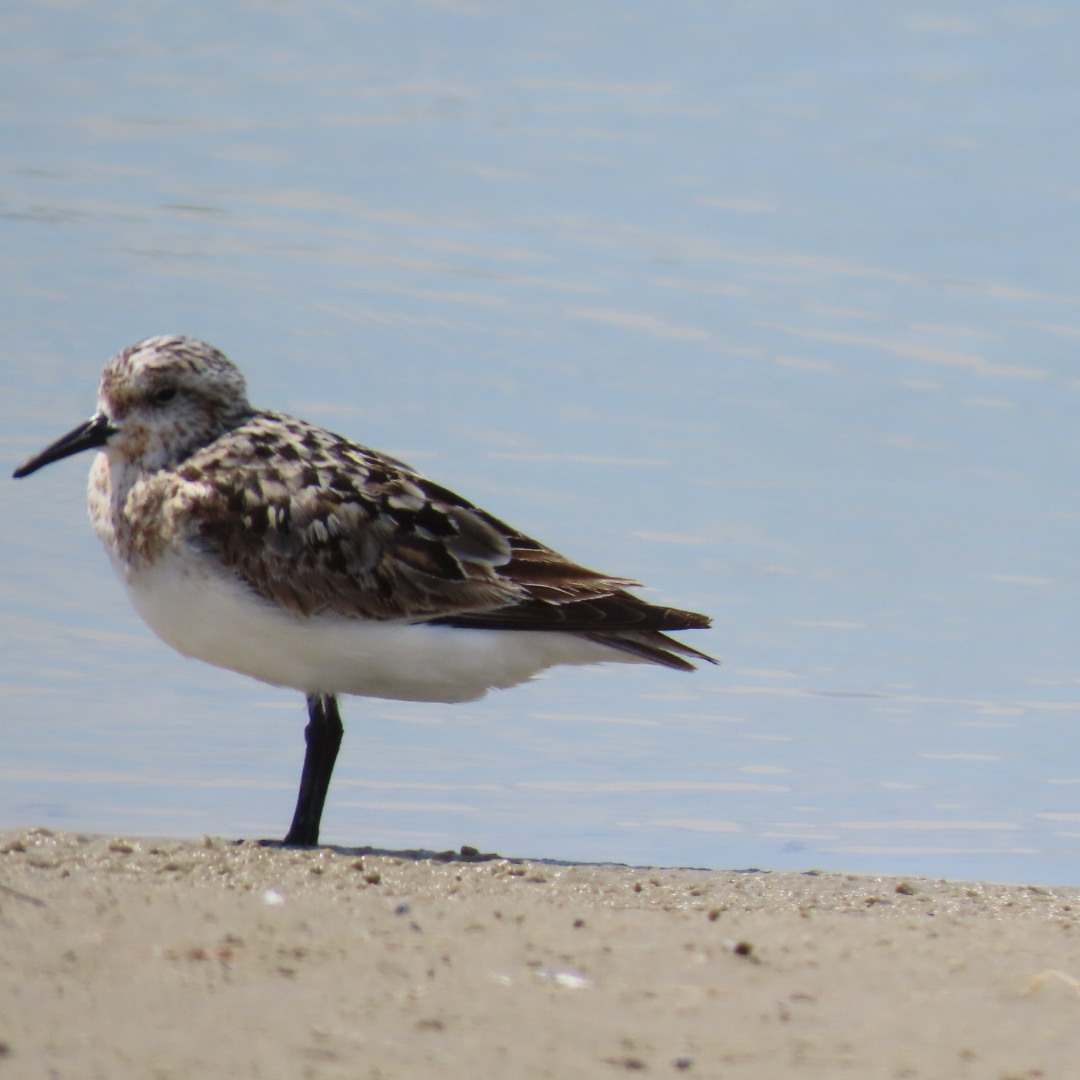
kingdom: Animalia
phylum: Chordata
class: Aves
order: Charadriiformes
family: Scolopacidae
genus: Calidris
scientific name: Calidris alba
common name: Sanderling
